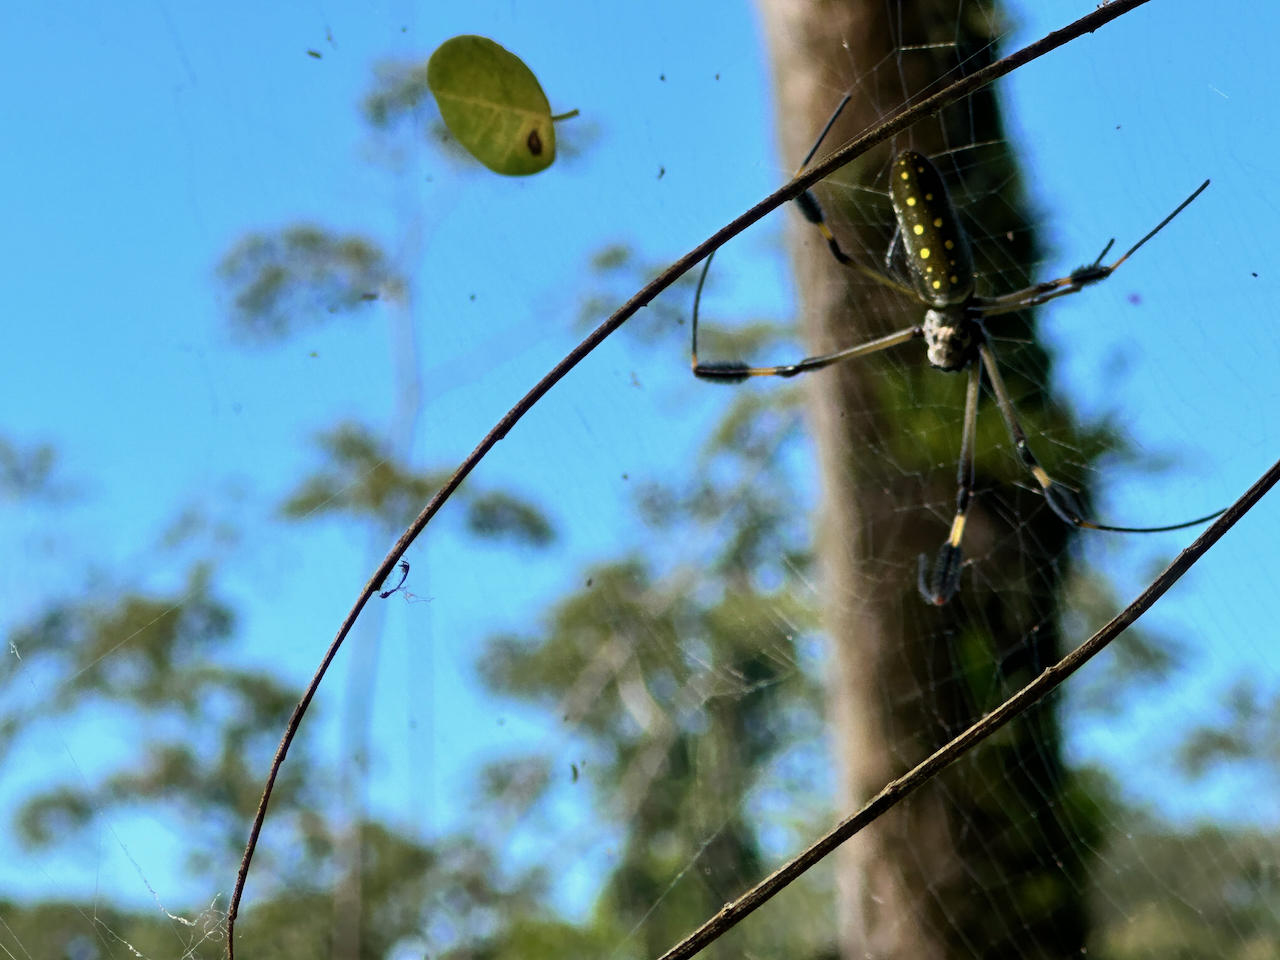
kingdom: Animalia
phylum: Arthropoda
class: Arachnida
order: Araneae
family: Araneidae
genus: Trichonephila
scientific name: Trichonephila clavipes
